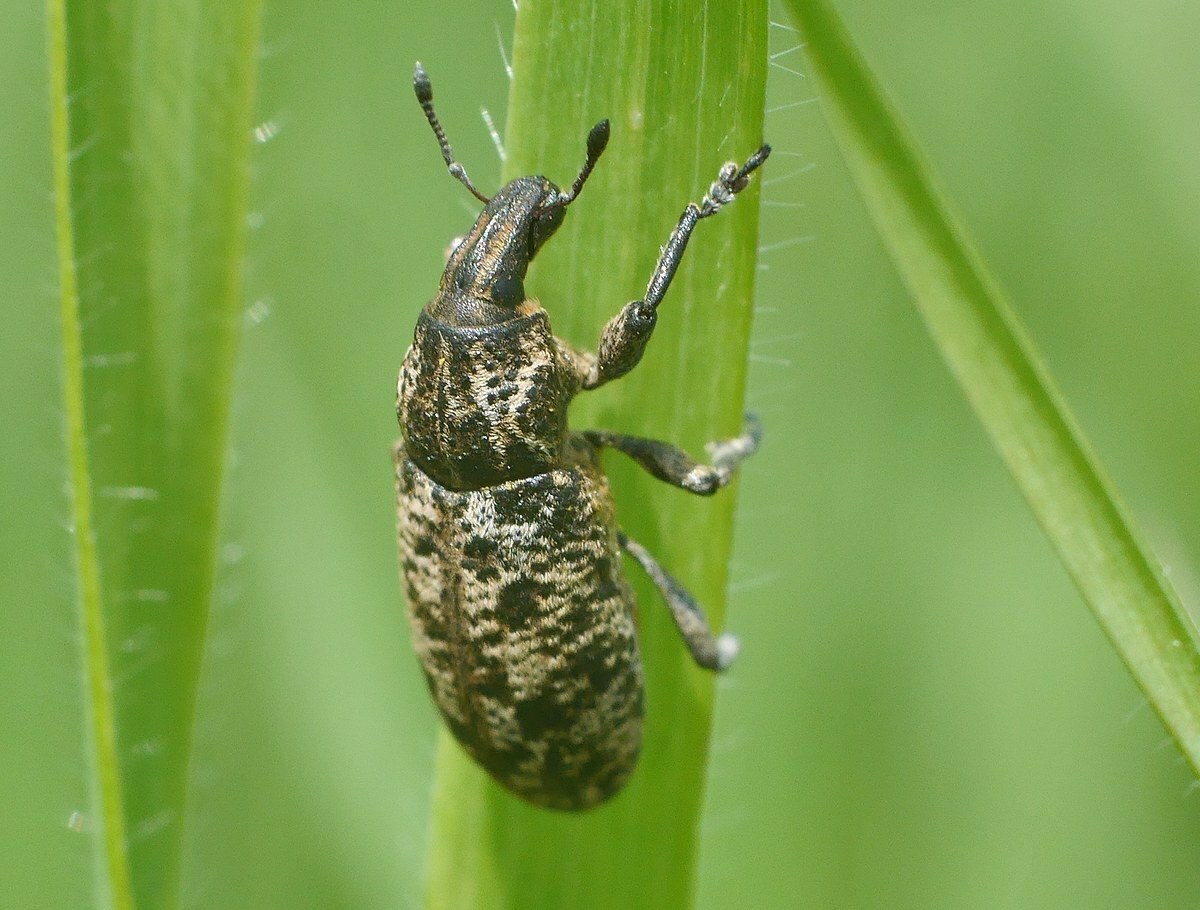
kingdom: Animalia
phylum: Arthropoda
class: Insecta
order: Coleoptera
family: Curculionidae
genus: Cyphocleonus
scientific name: Cyphocleonus dealbatus
